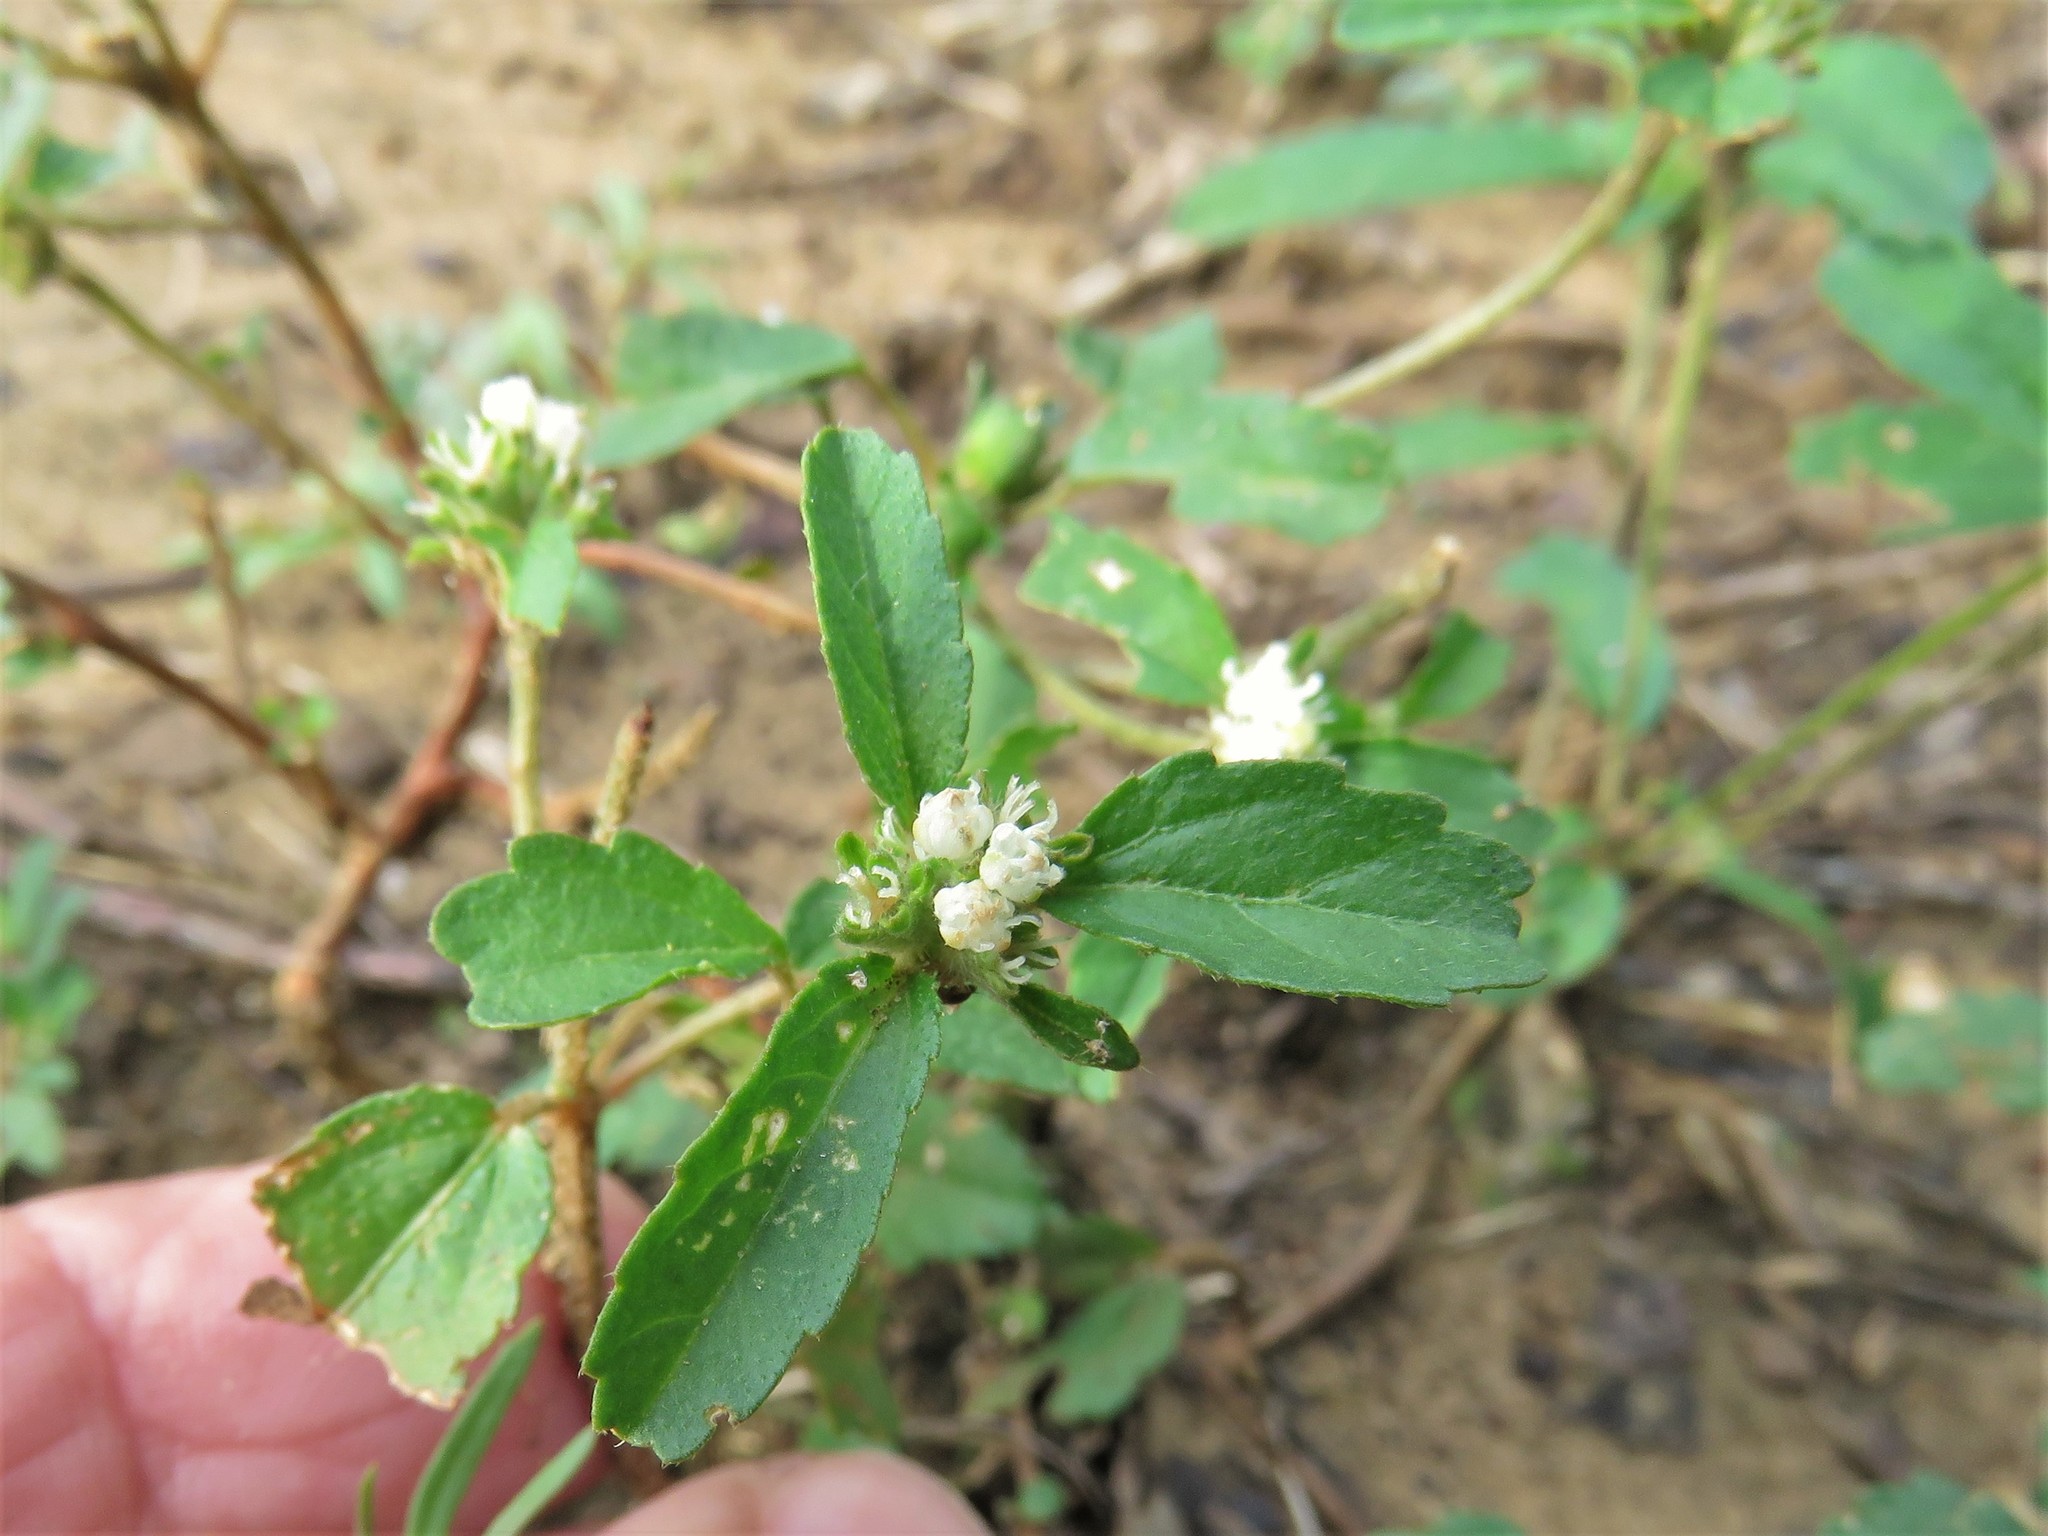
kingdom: Plantae
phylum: Tracheophyta
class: Magnoliopsida
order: Malpighiales
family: Euphorbiaceae
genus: Croton
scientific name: Croton glandulosus
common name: Tropic croton
